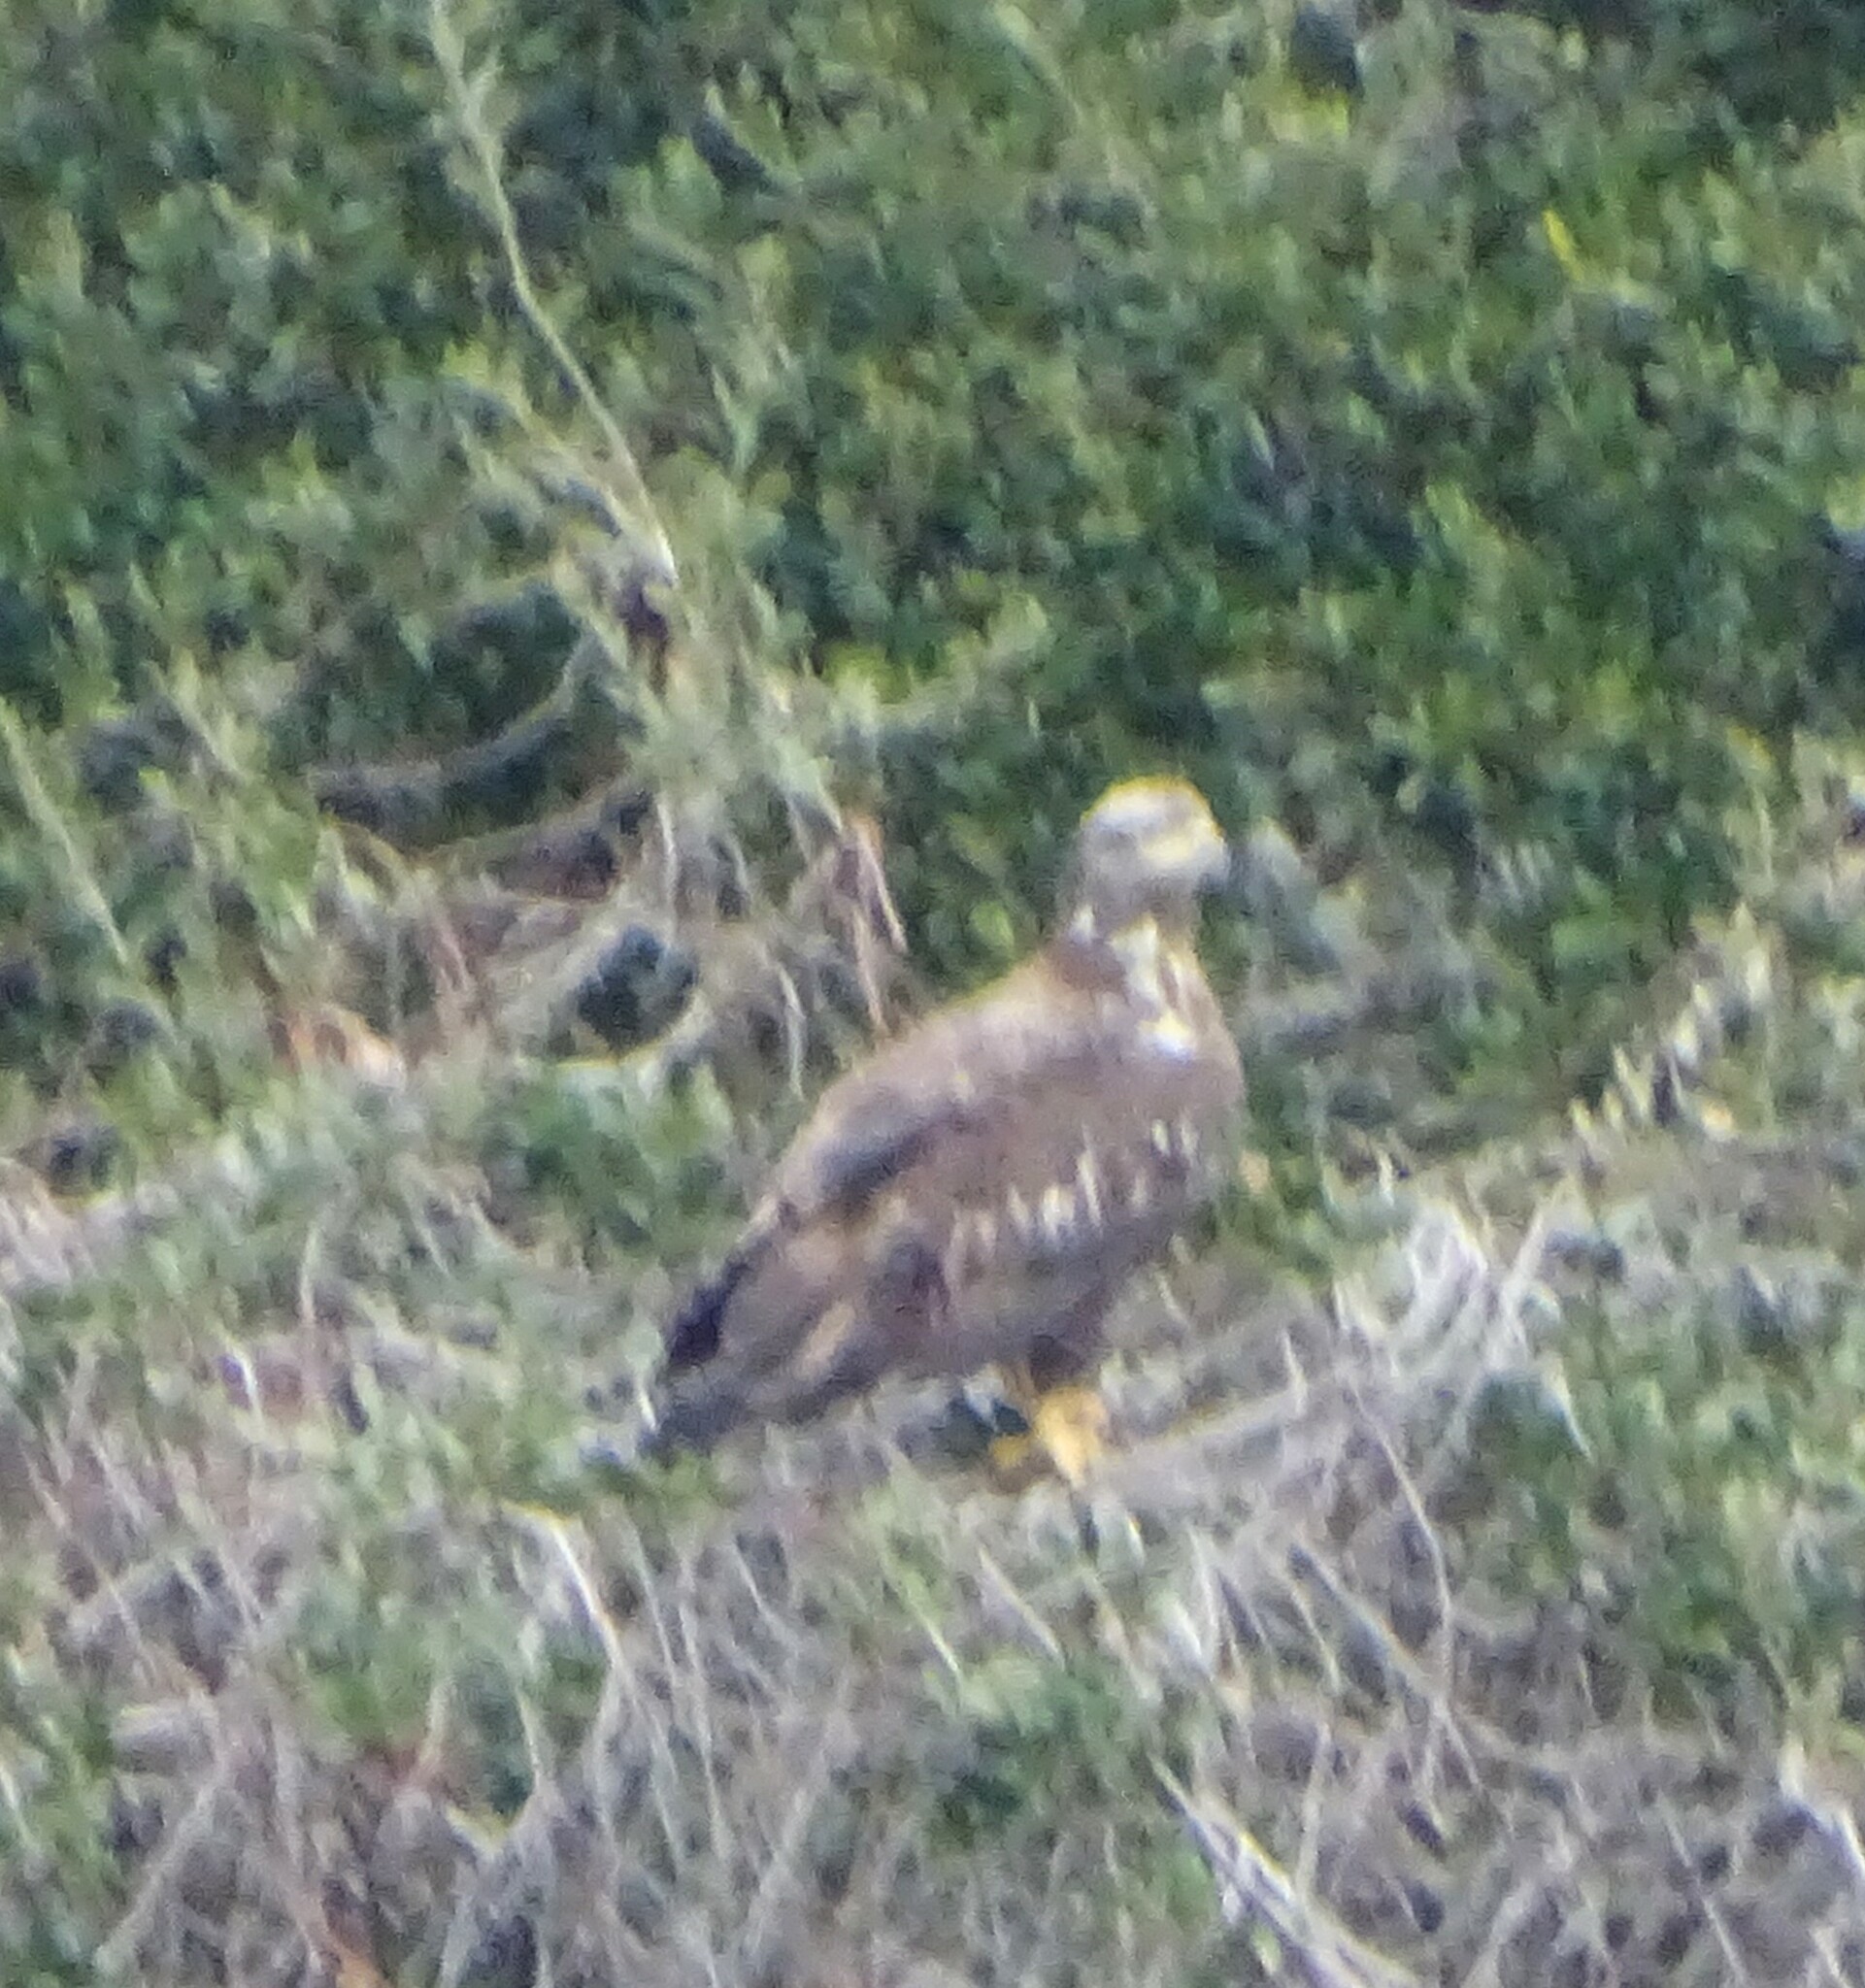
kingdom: Animalia
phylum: Chordata
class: Aves
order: Accipitriformes
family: Accipitridae
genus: Haliaeetus
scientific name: Haliaeetus leucocephalus
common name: Bald eagle
